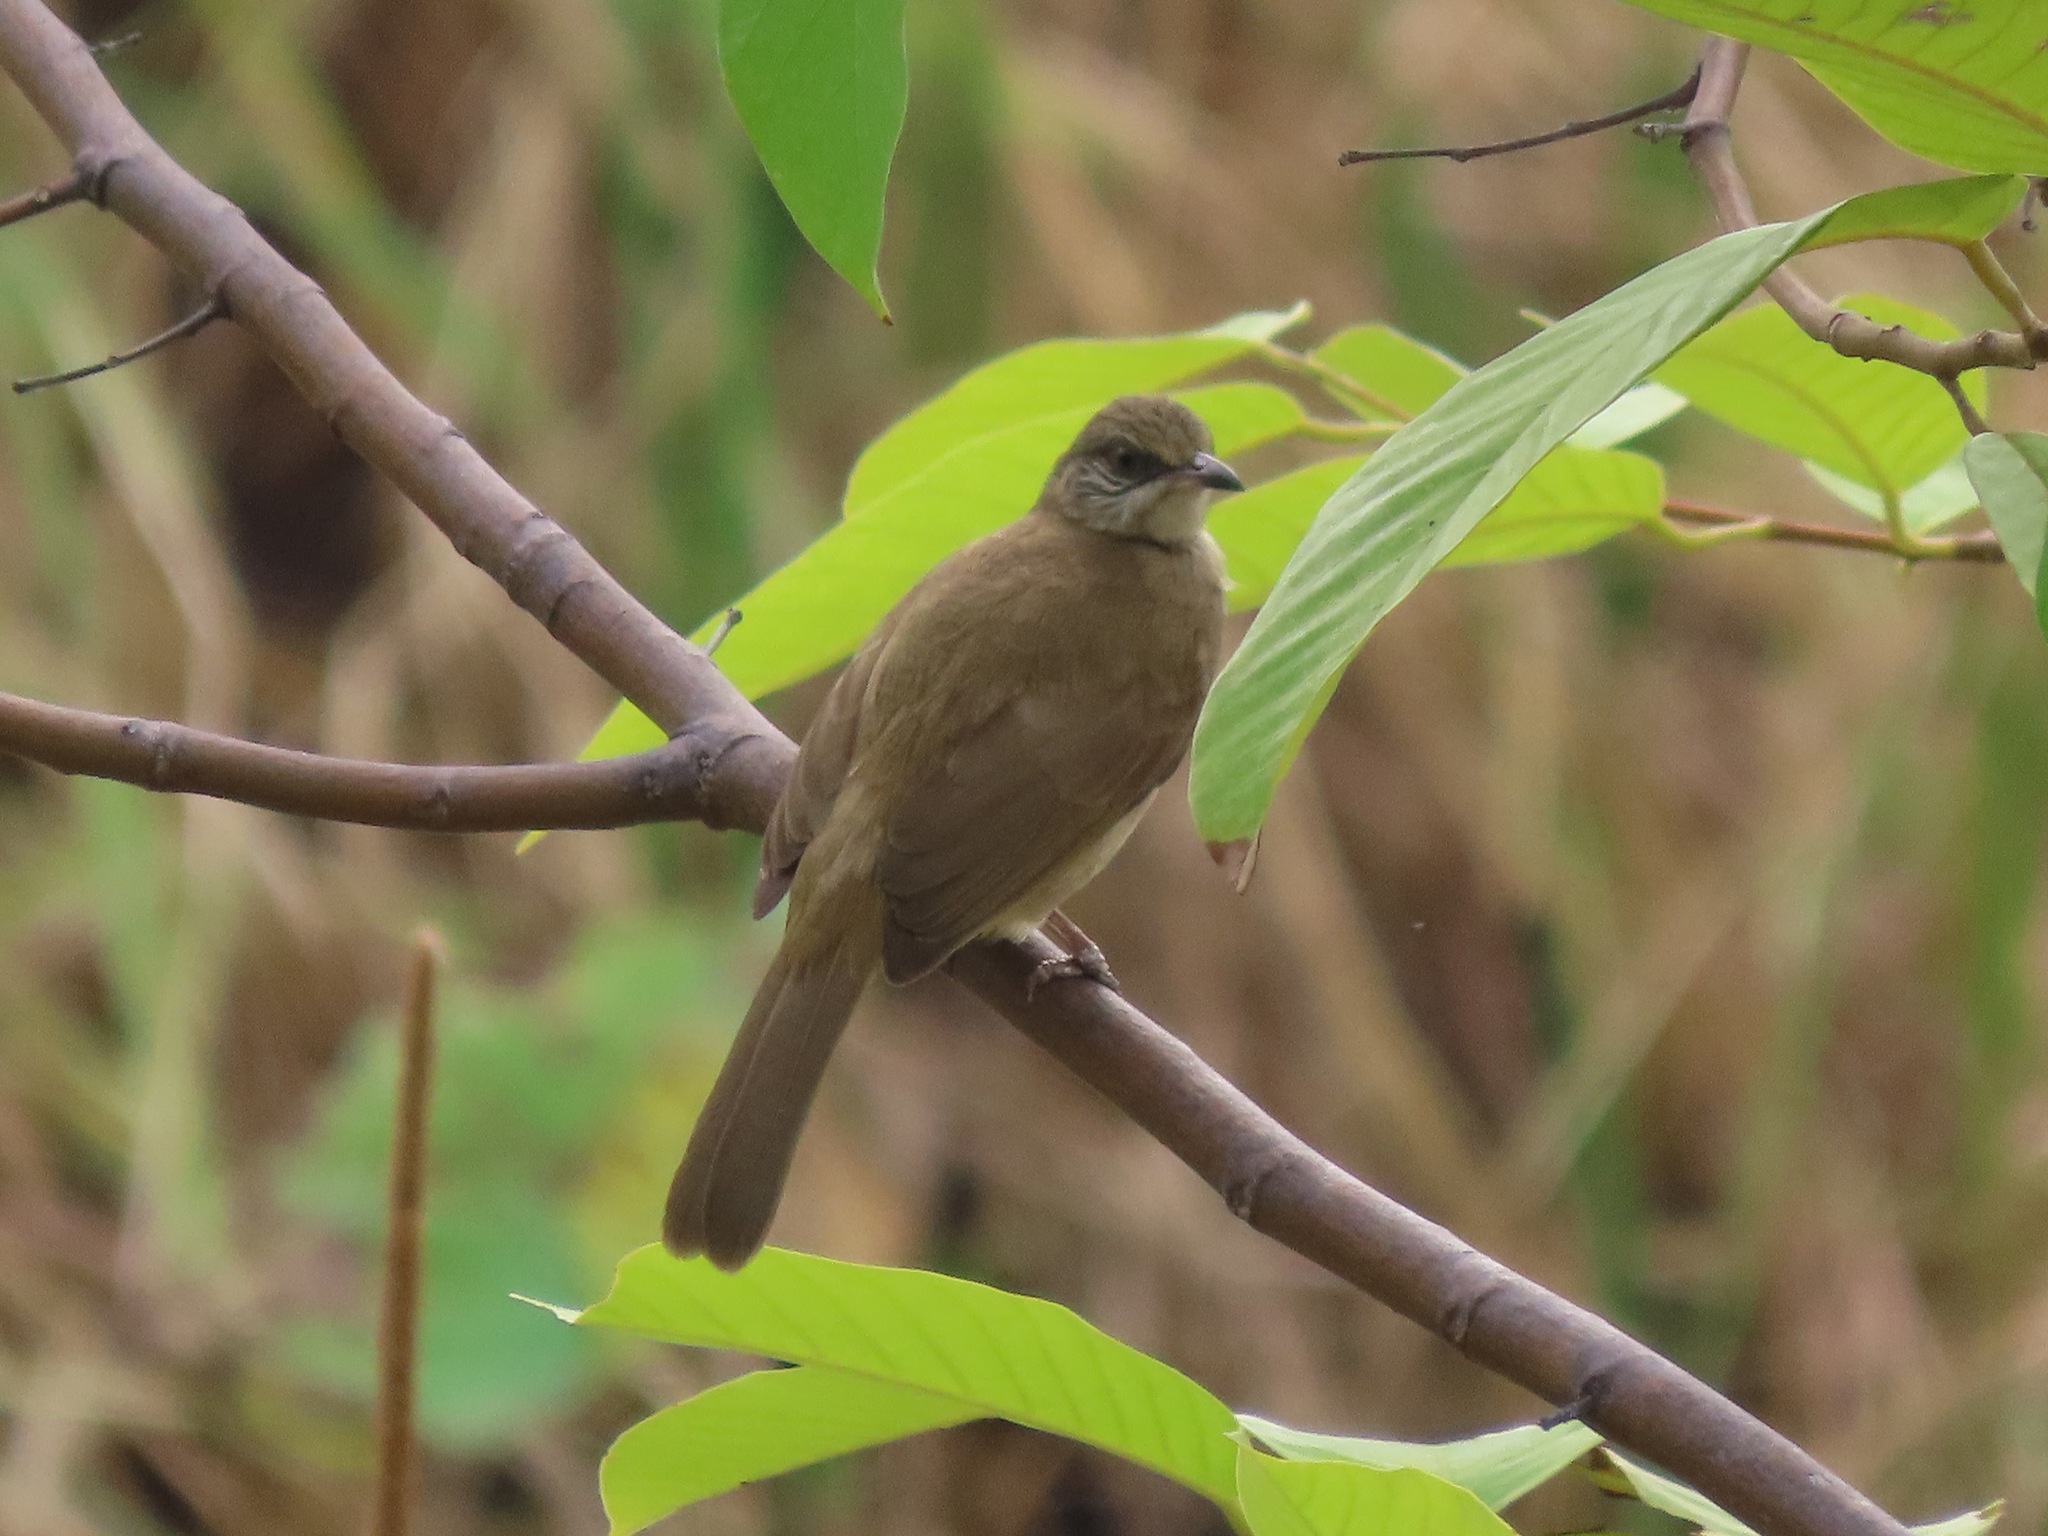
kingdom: Animalia
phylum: Chordata
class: Aves
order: Passeriformes
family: Pycnonotidae
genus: Pycnonotus
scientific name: Pycnonotus blanfordi
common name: Streak-eared bulbul
